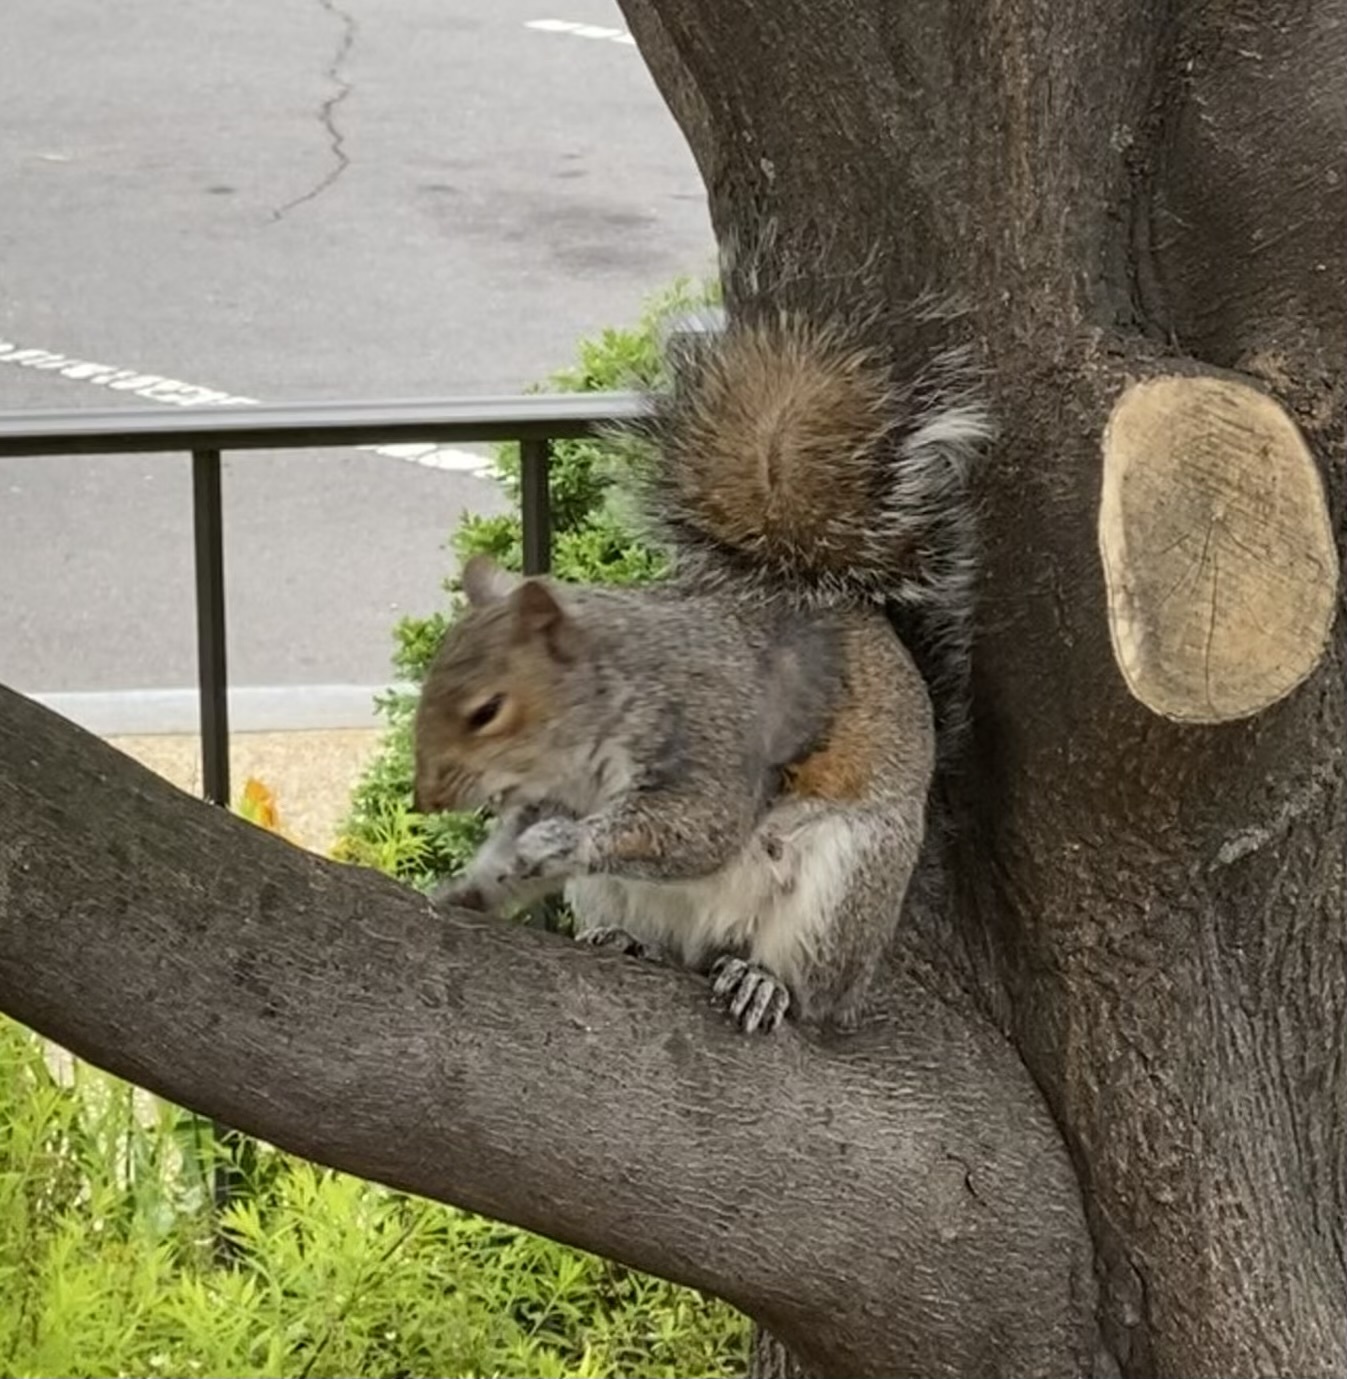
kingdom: Animalia
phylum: Chordata
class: Mammalia
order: Rodentia
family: Sciuridae
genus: Sciurus
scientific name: Sciurus carolinensis
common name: Eastern gray squirrel
